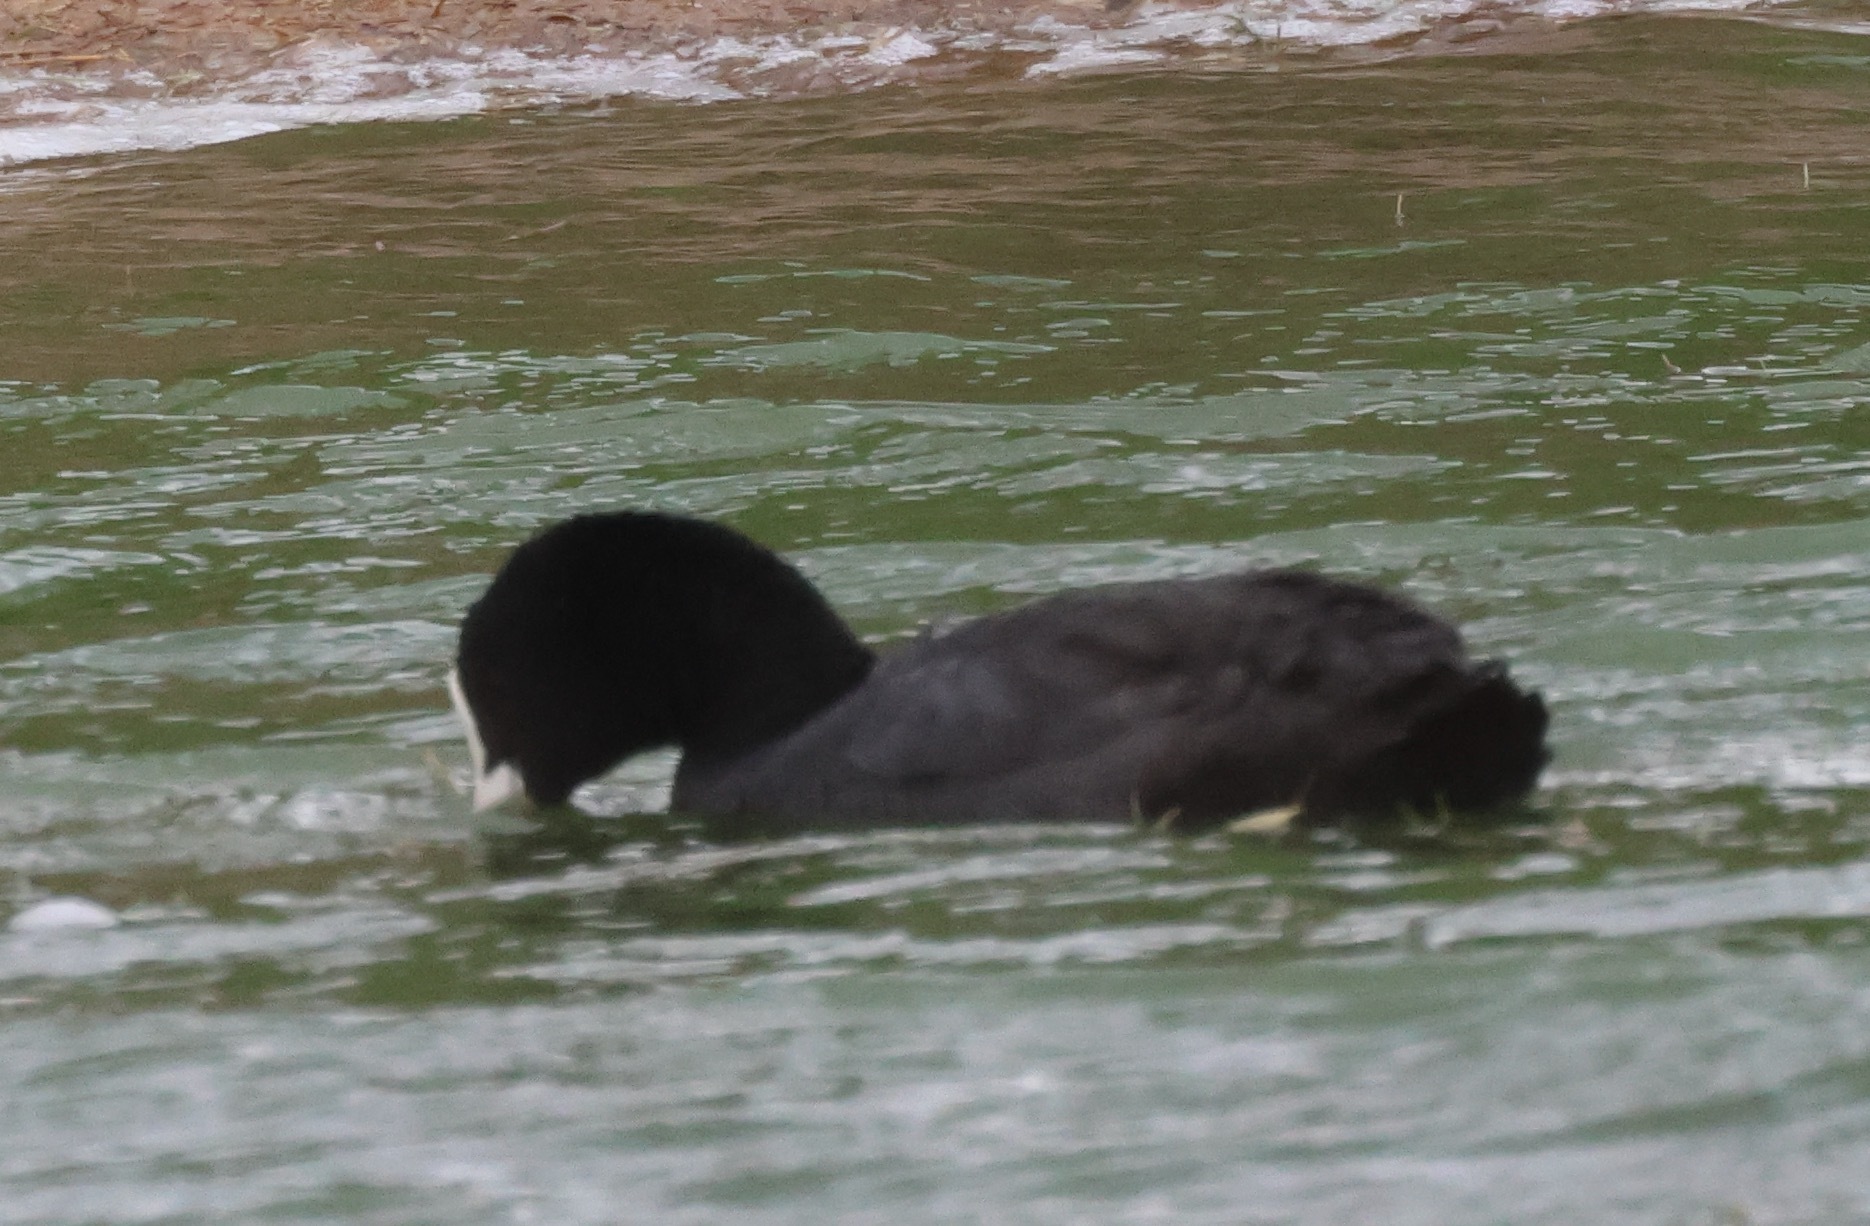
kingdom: Animalia
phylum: Chordata
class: Aves
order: Gruiformes
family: Rallidae
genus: Fulica
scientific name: Fulica atra
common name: Eurasian coot
